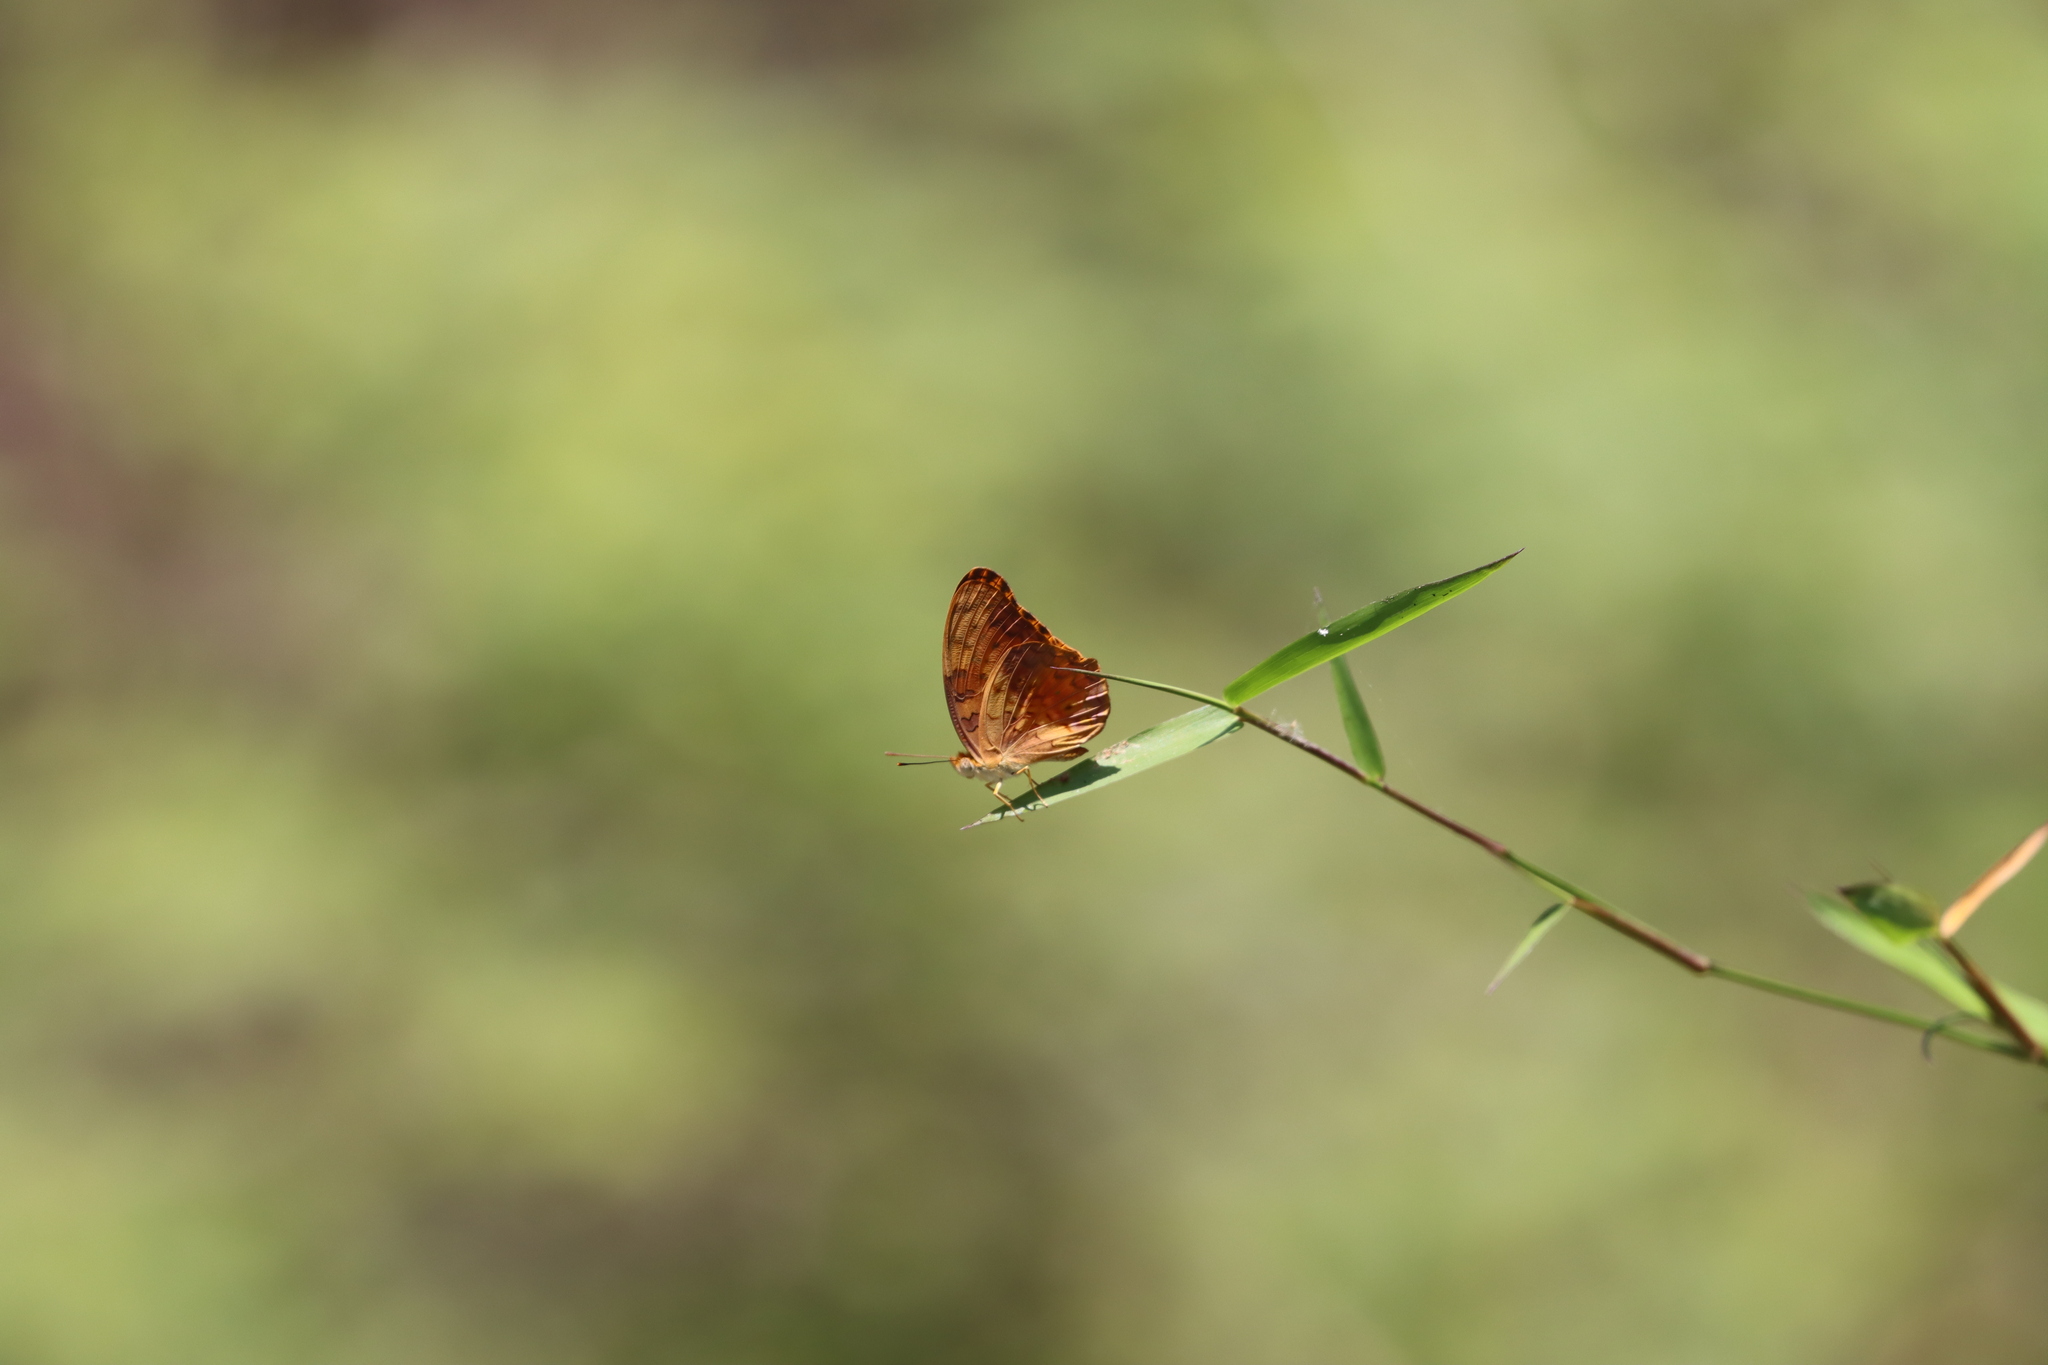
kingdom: Animalia
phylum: Arthropoda
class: Insecta
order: Lepidoptera
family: Nymphalidae
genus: Phalanta
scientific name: Phalanta phalantha
